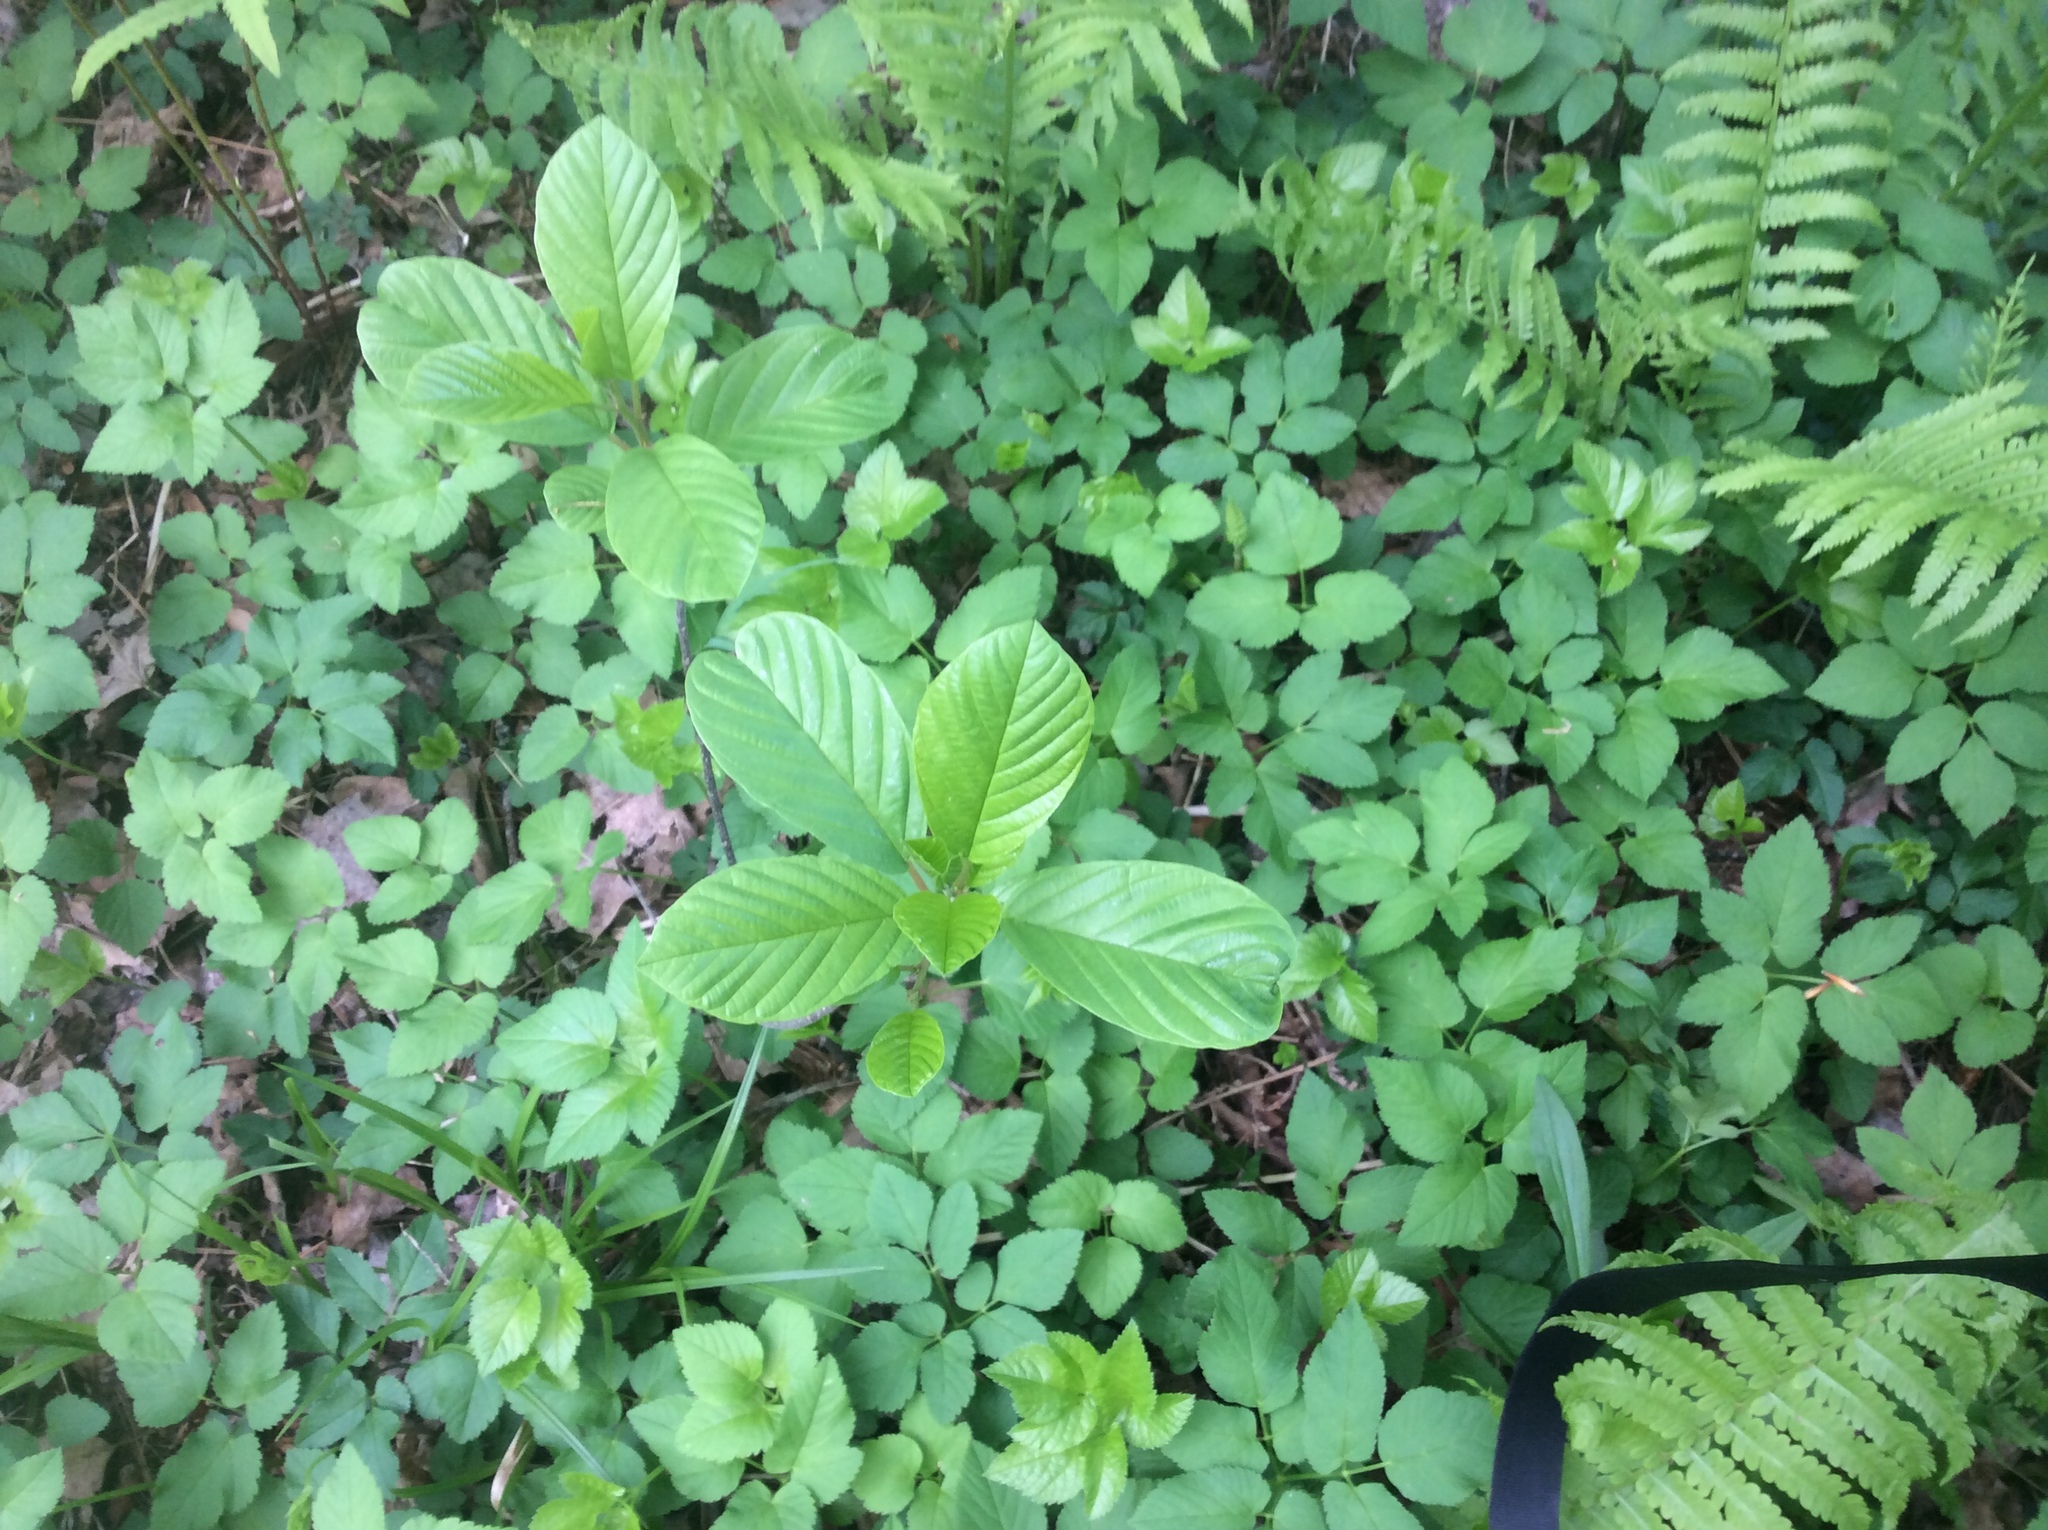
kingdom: Plantae
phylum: Tracheophyta
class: Magnoliopsida
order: Rosales
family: Rhamnaceae
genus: Frangula
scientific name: Frangula alnus
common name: Alder buckthorn
